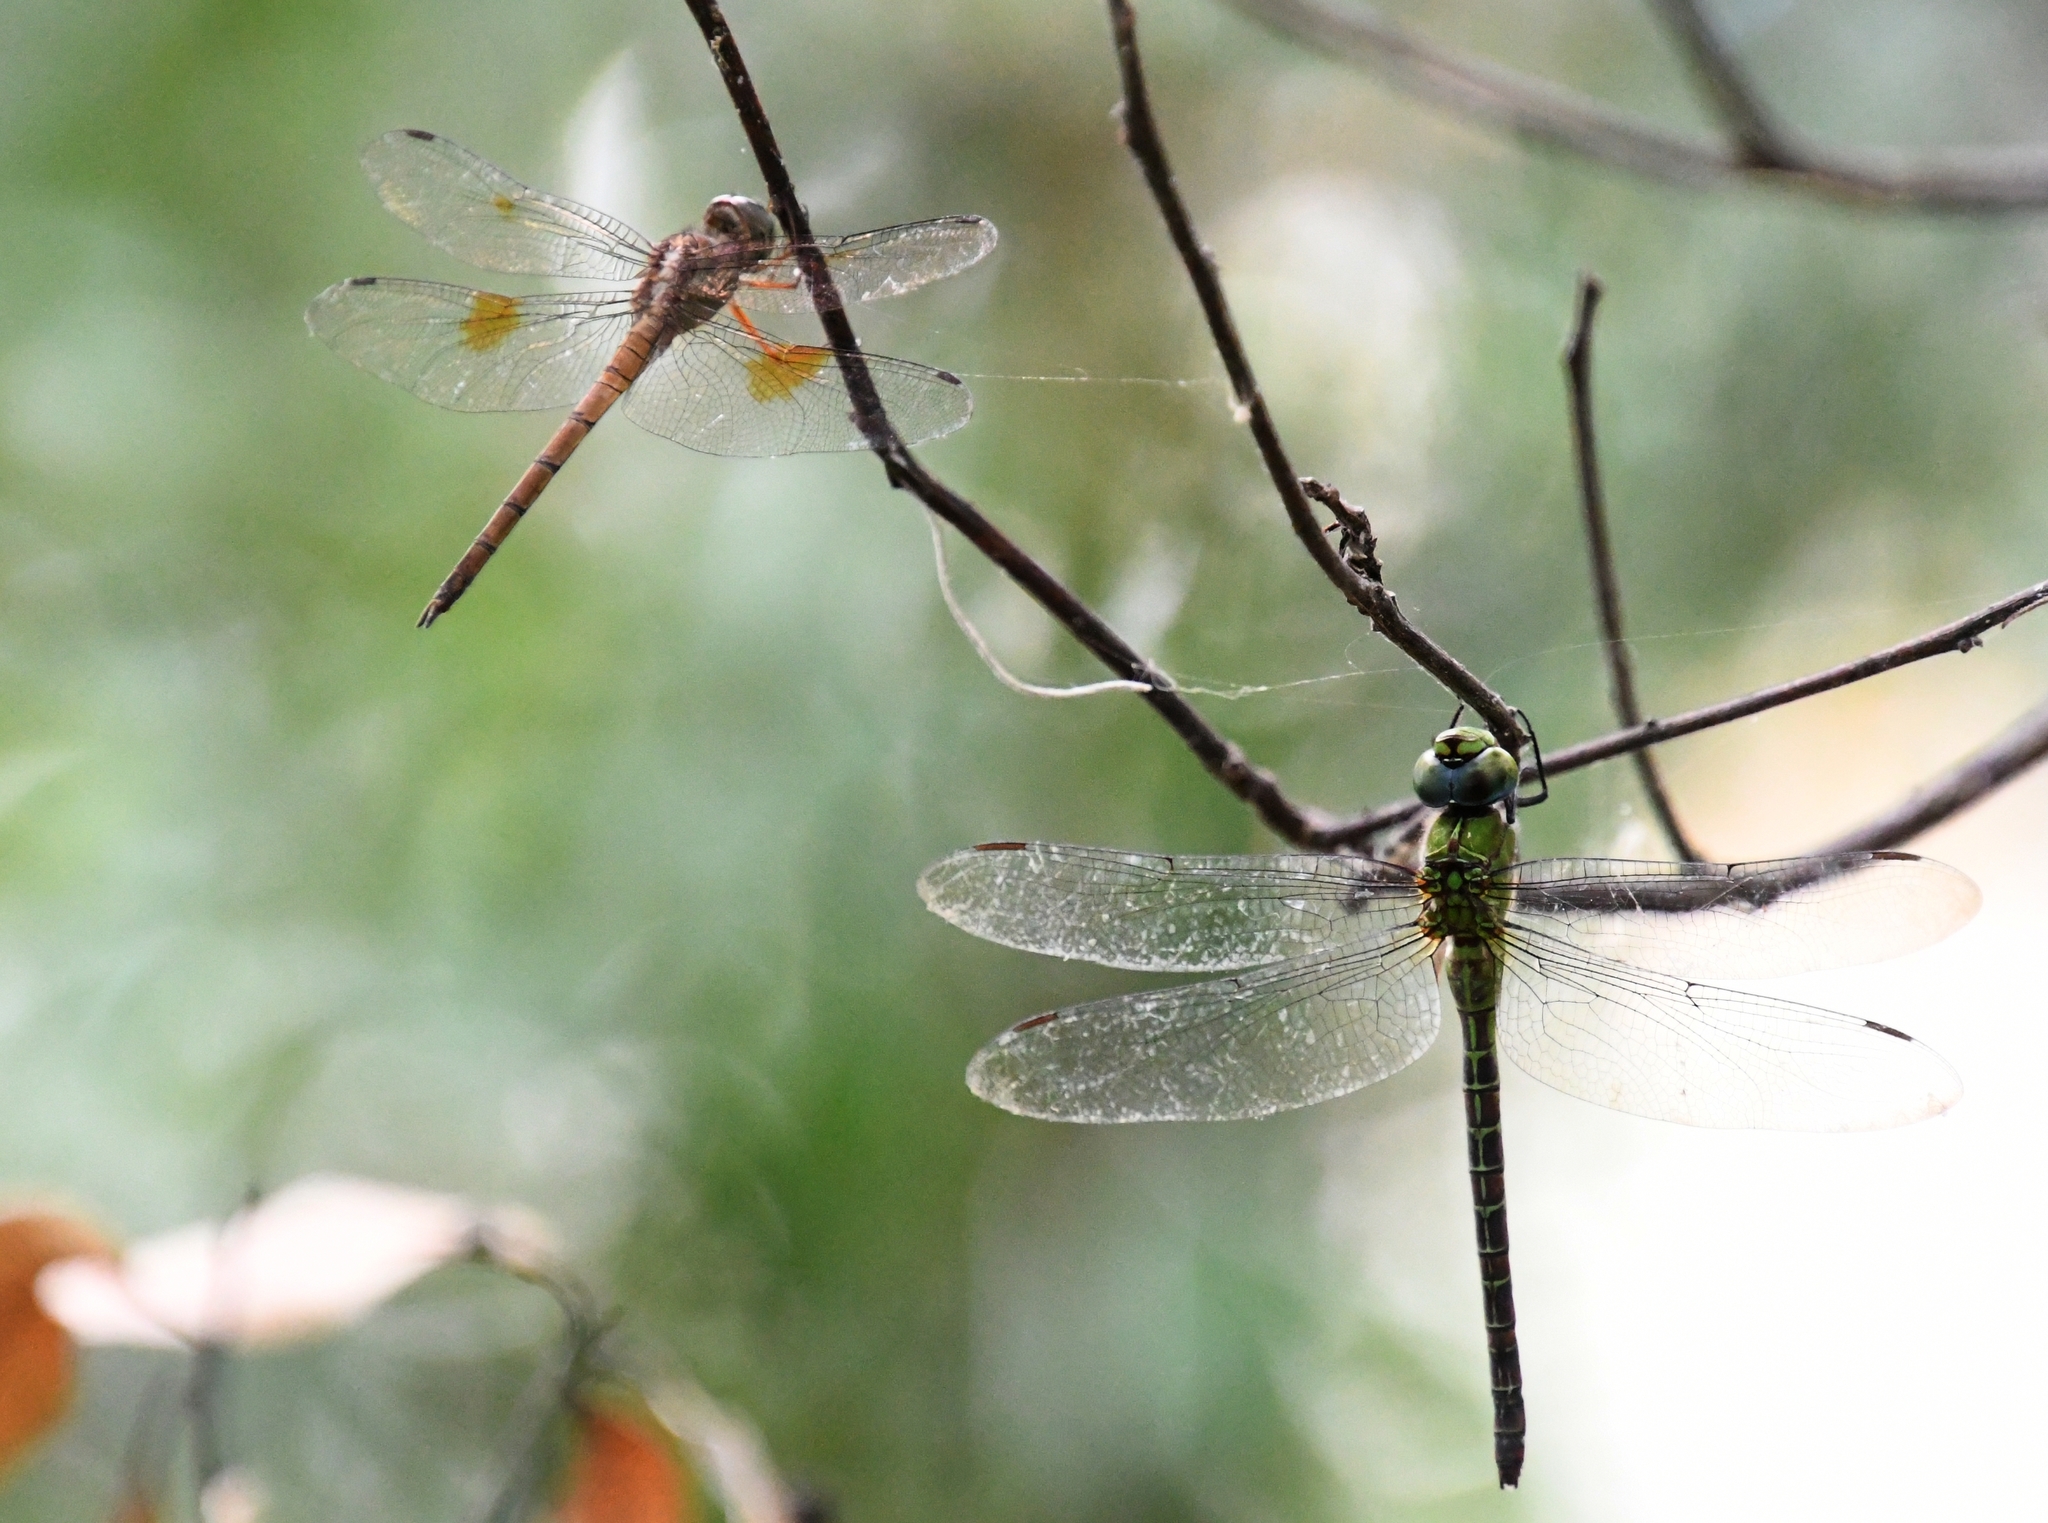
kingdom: Animalia
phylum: Arthropoda
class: Insecta
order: Odonata
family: Libellulidae
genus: Tholymis
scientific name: Tholymis citrina
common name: Evening skimmer
